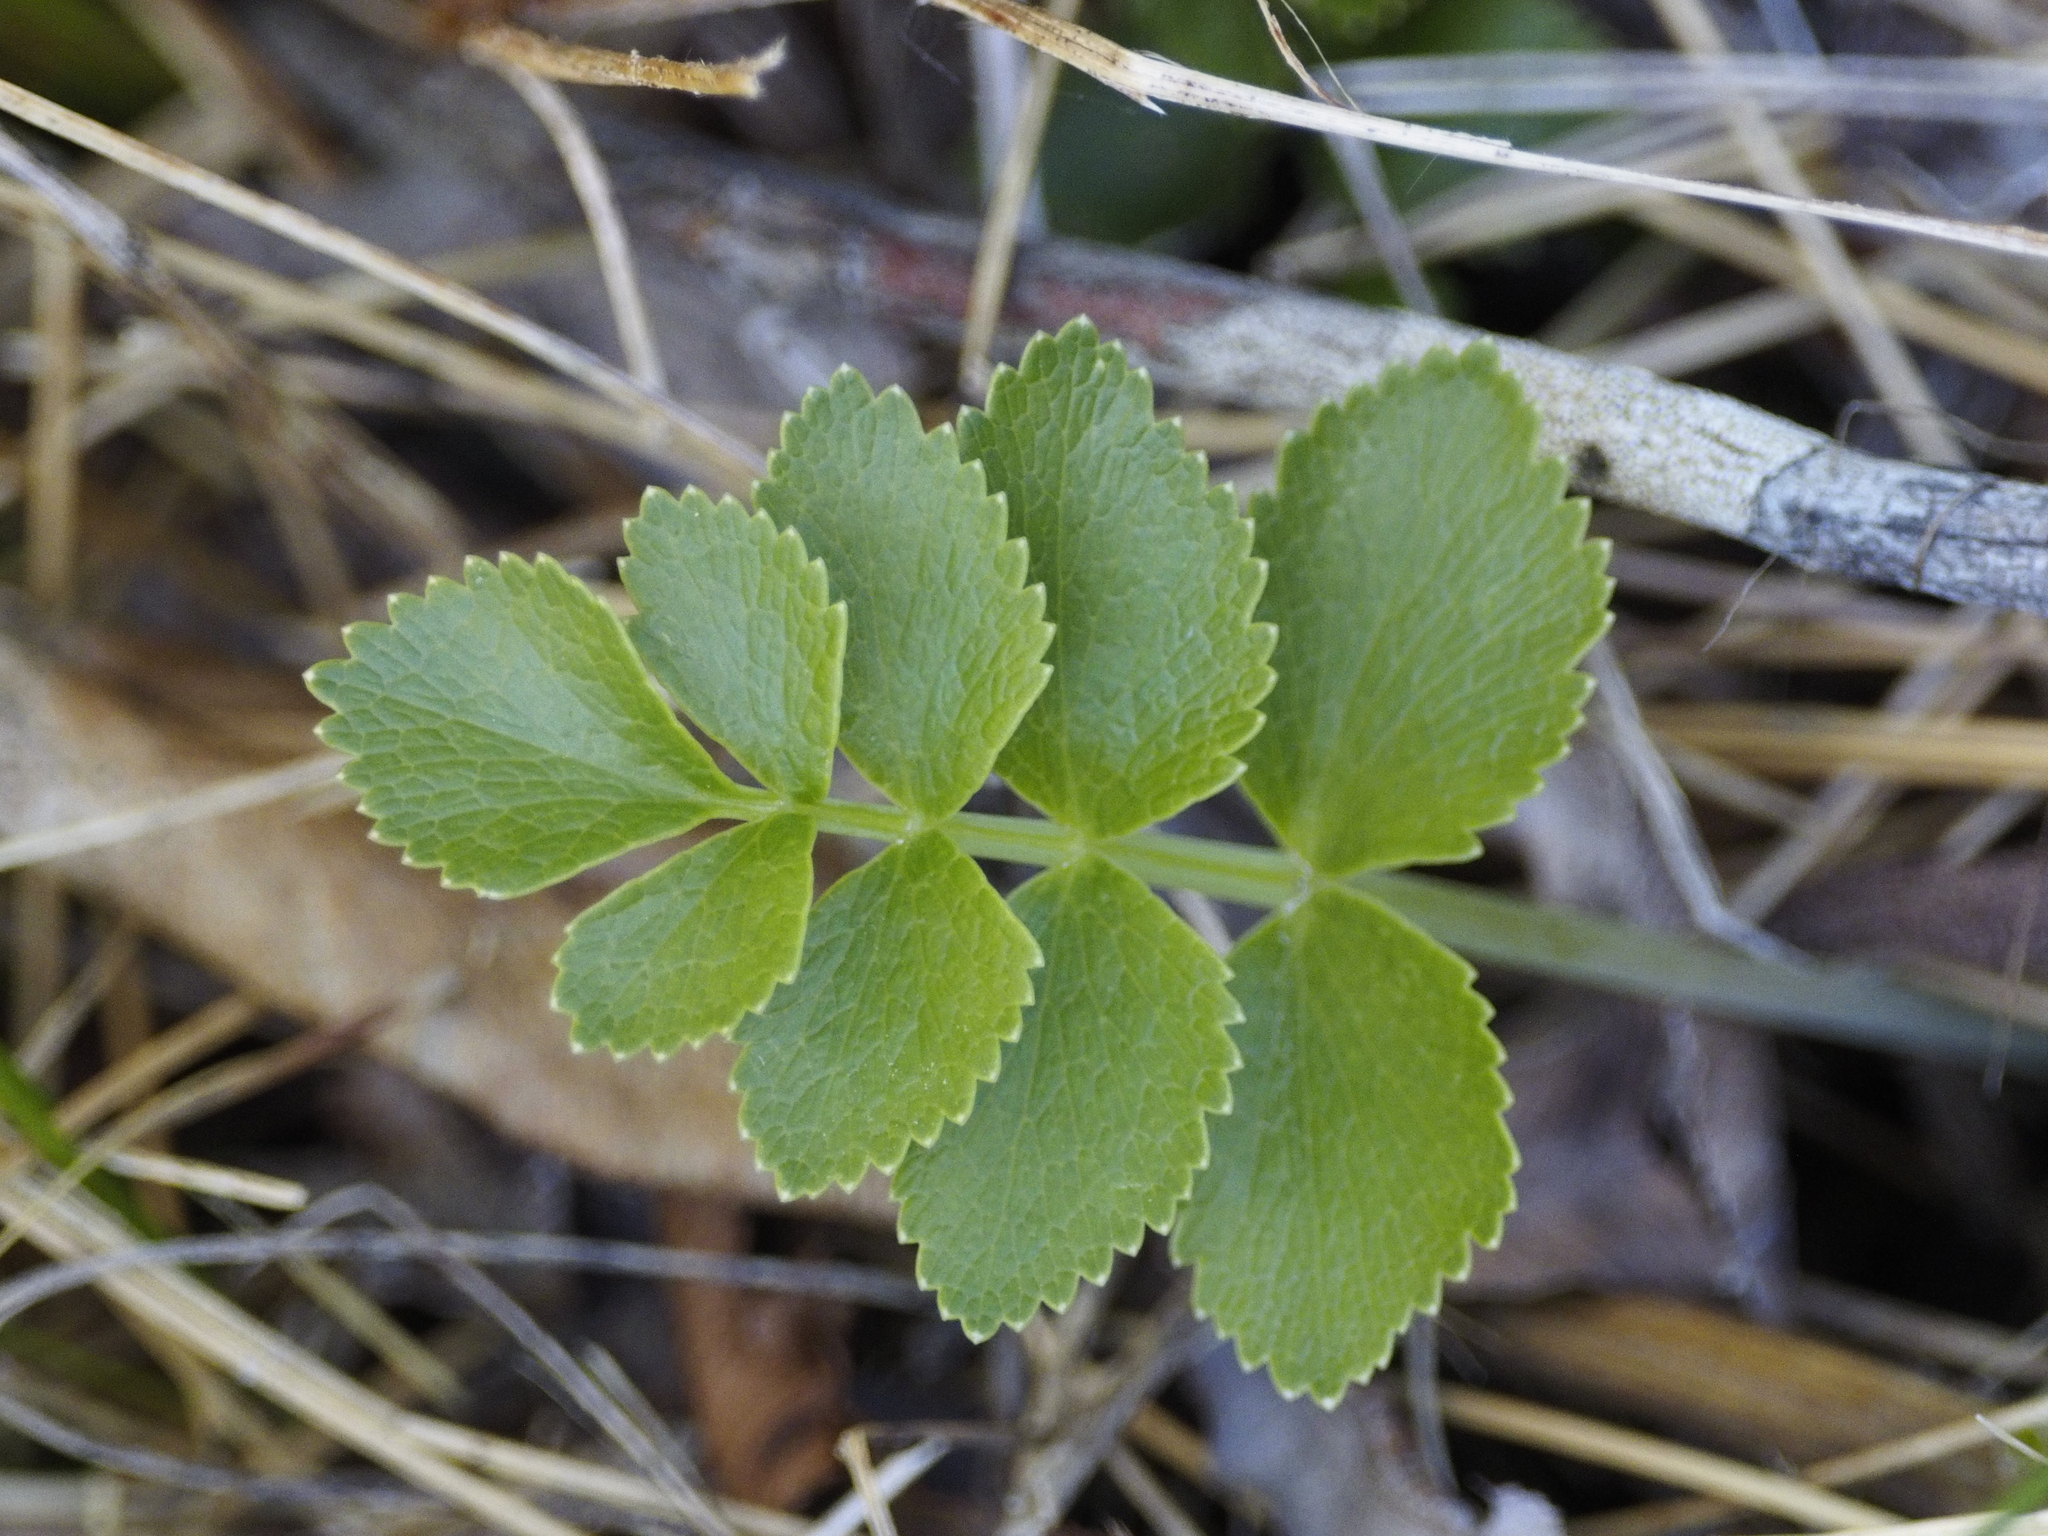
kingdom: Plantae
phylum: Tracheophyta
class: Magnoliopsida
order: Apiales
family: Apiaceae
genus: Gingidia
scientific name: Gingidia montana
